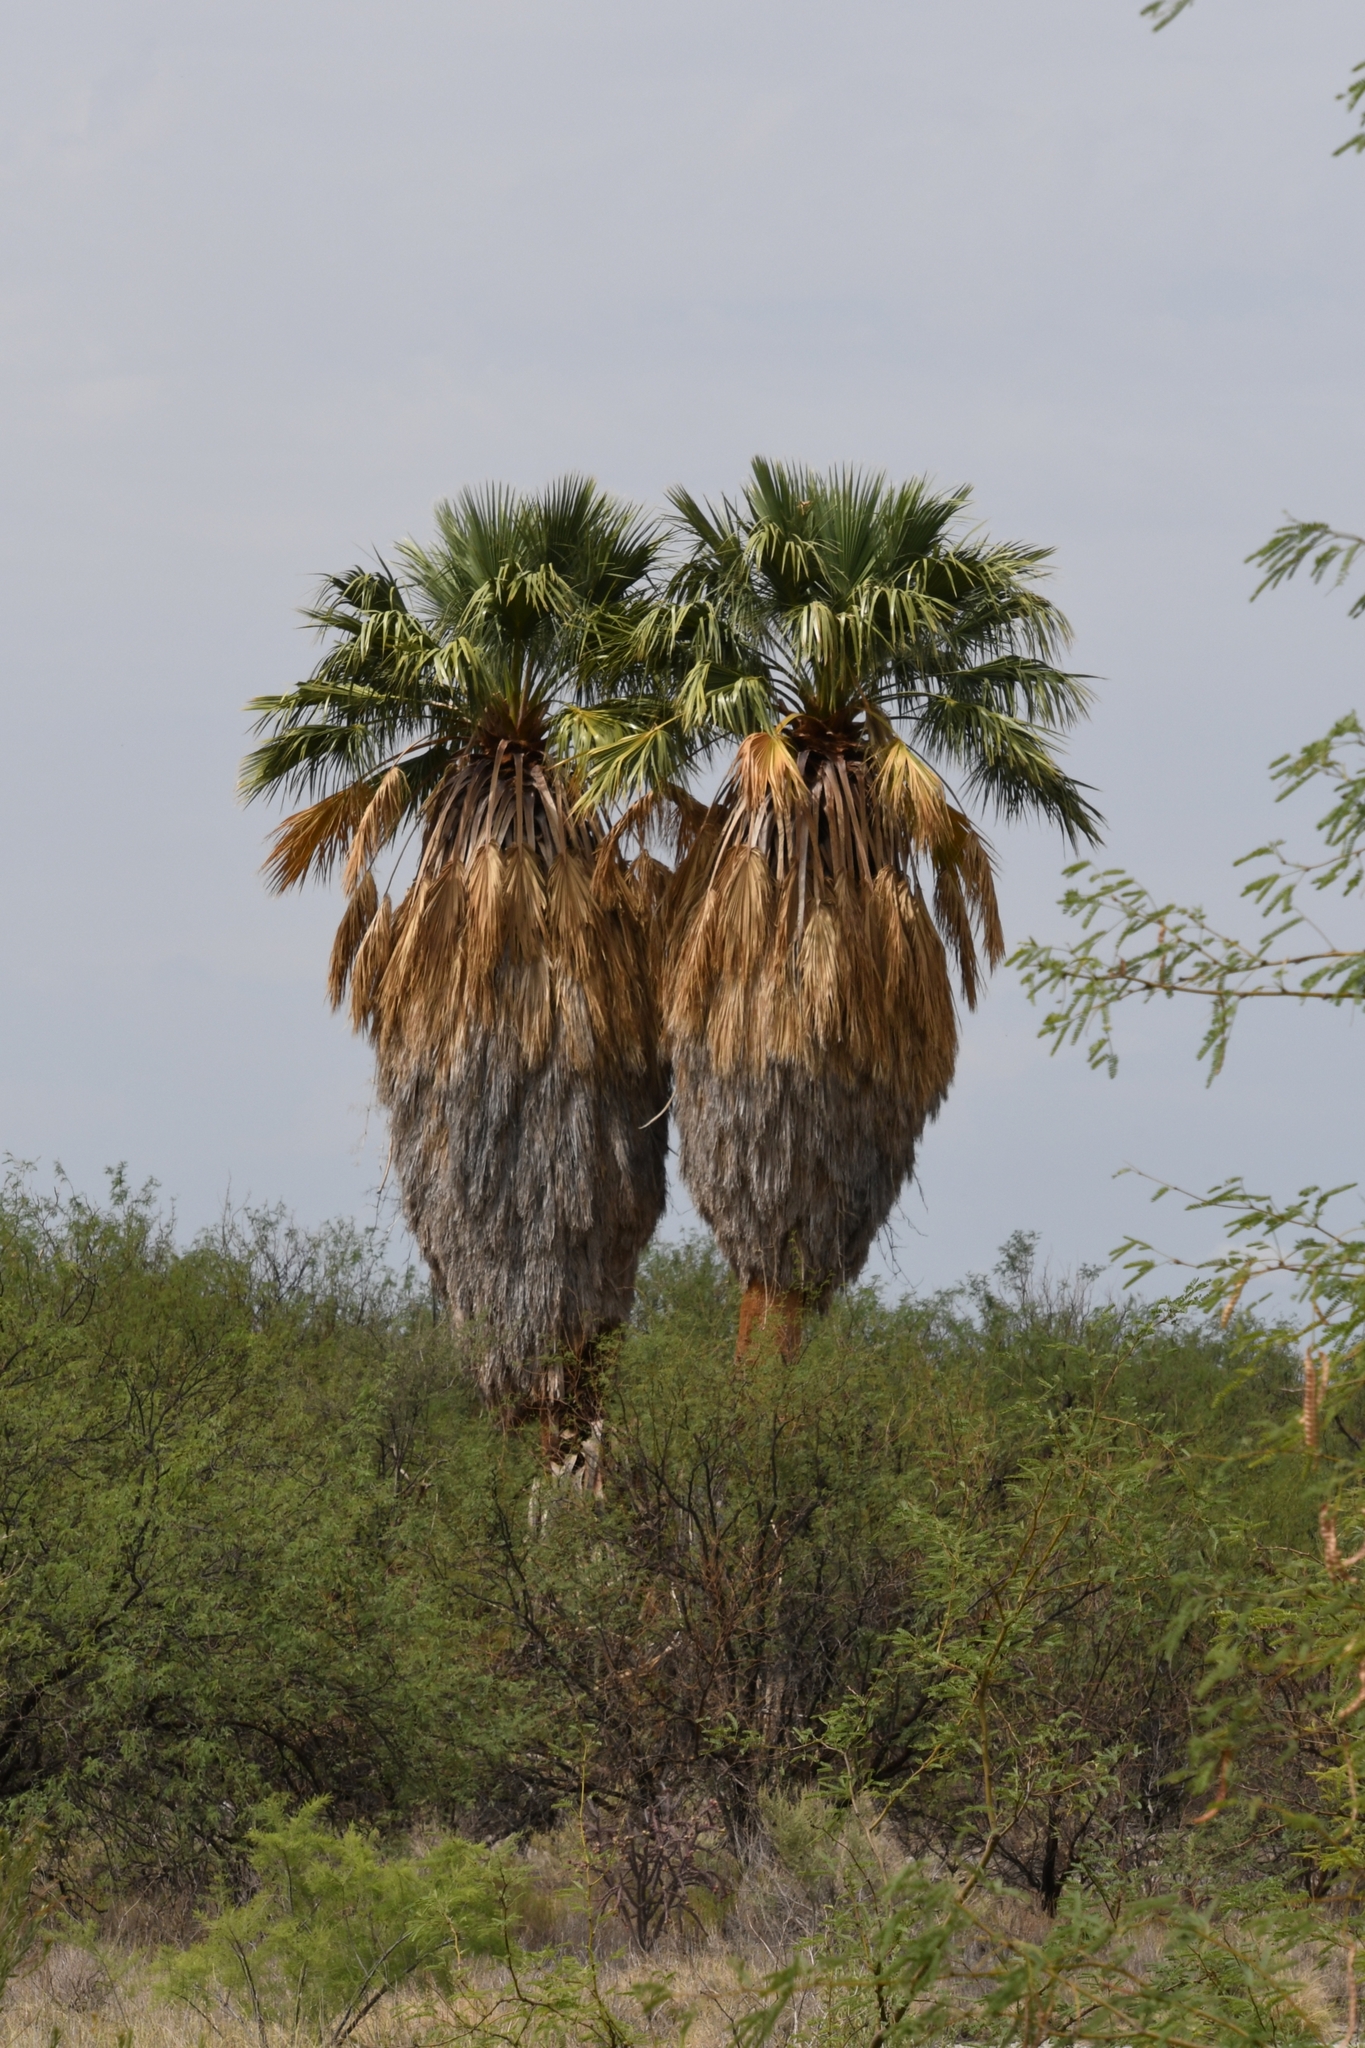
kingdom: Plantae
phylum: Tracheophyta
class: Liliopsida
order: Arecales
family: Arecaceae
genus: Washingtonia
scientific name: Washingtonia filifera
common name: California fan palm
